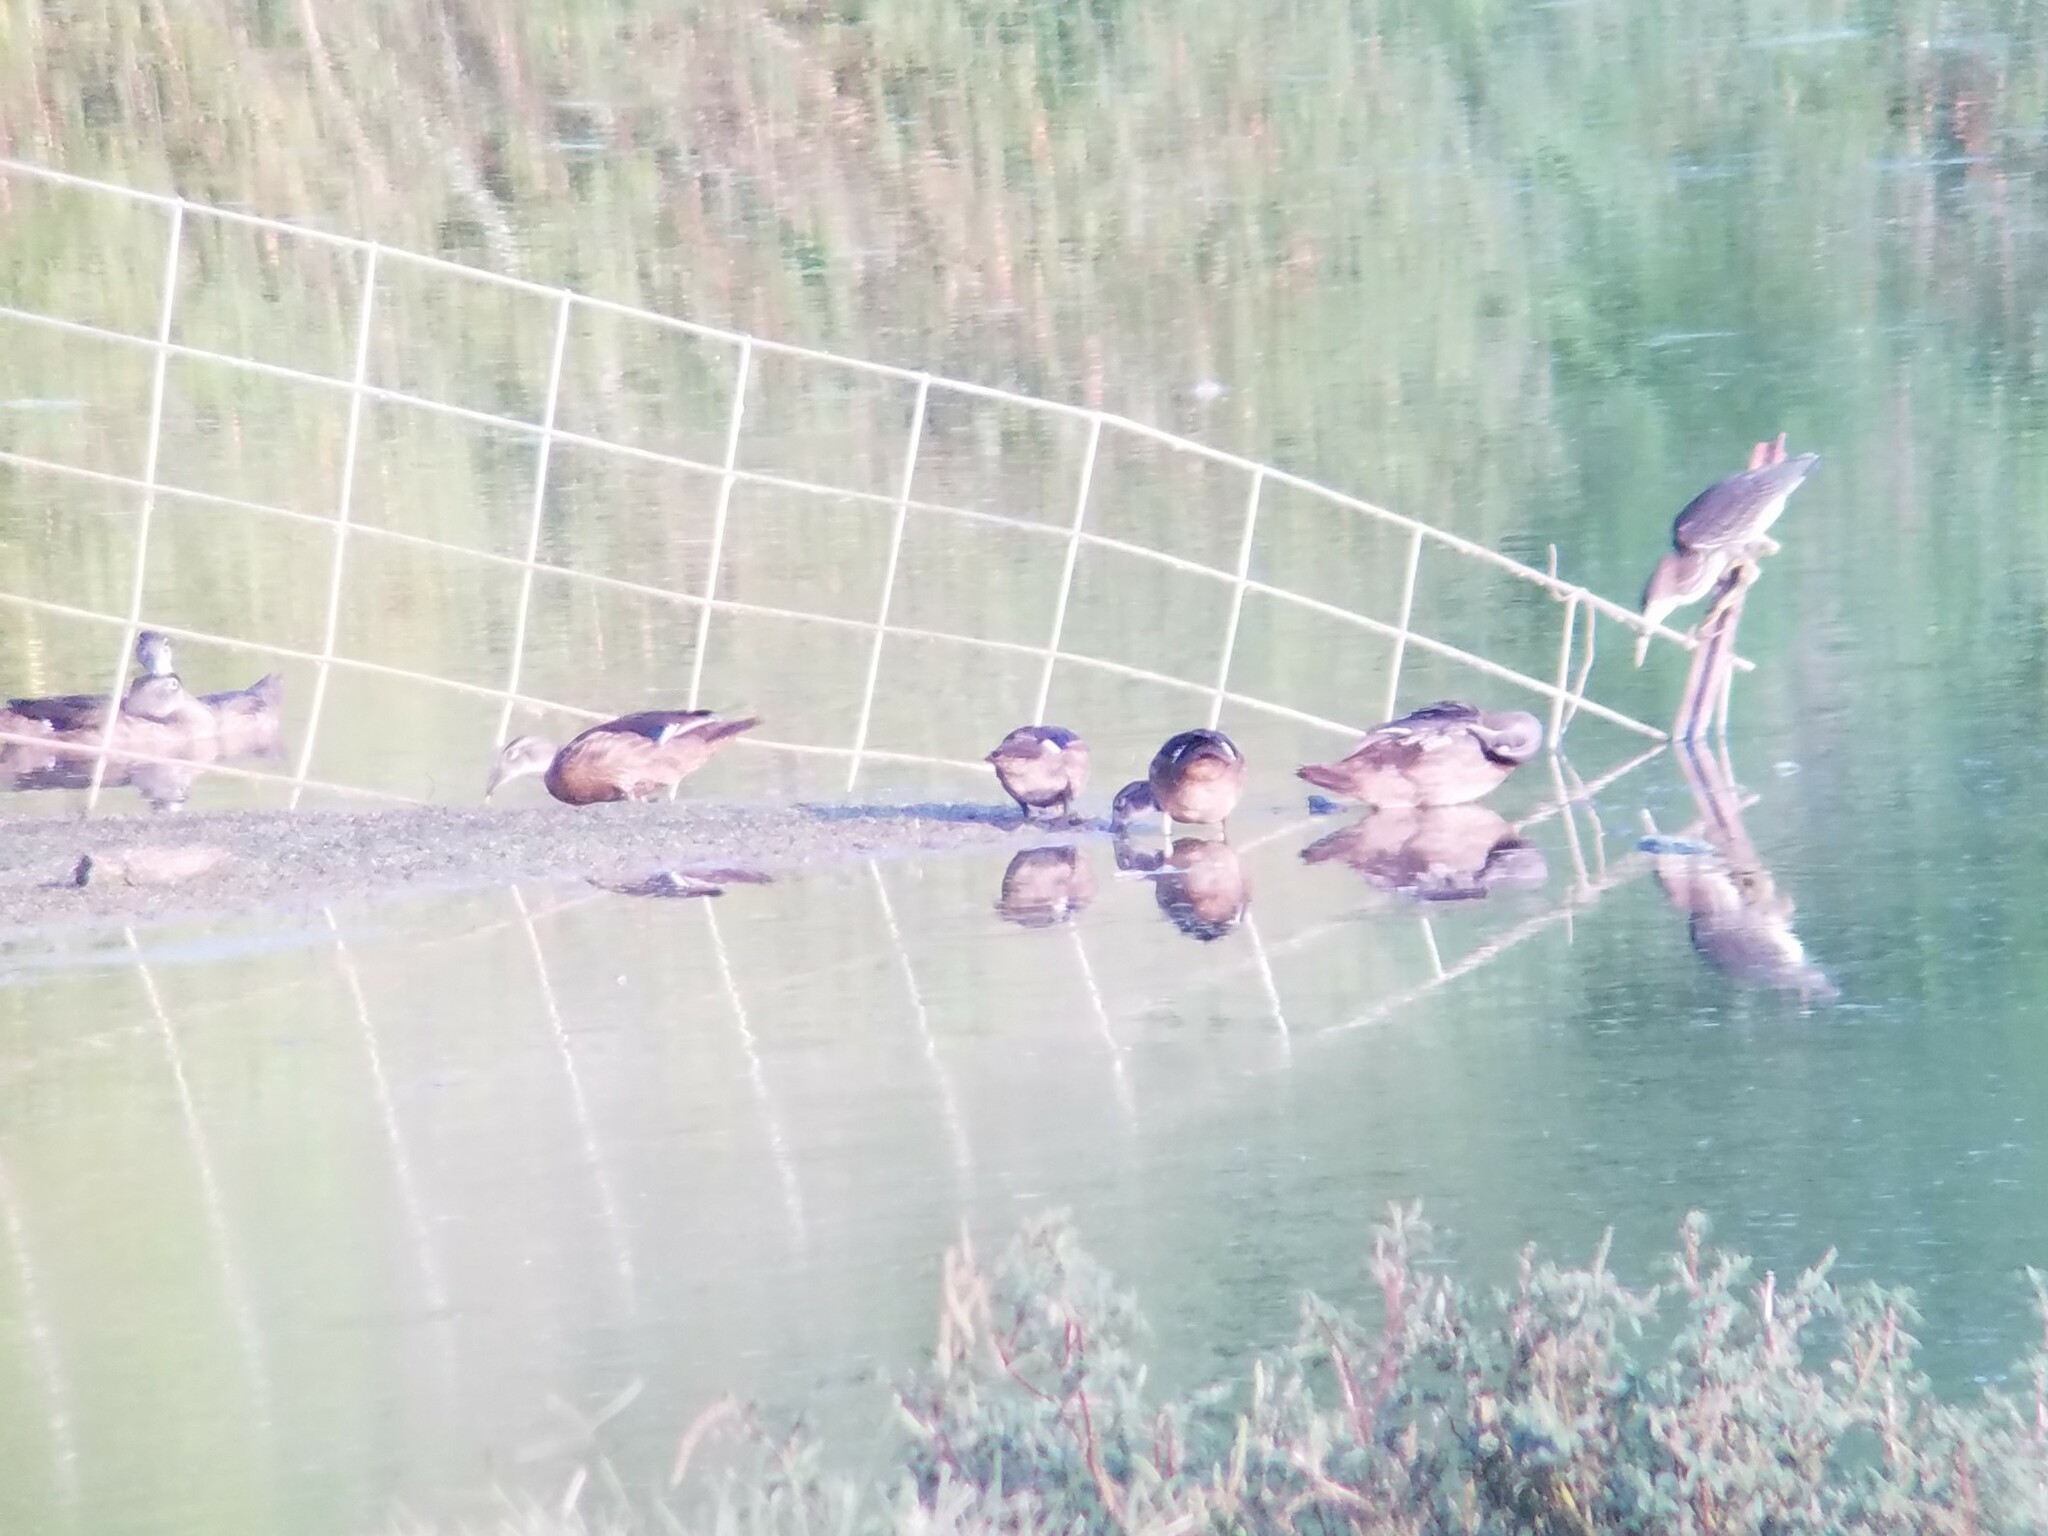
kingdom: Animalia
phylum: Chordata
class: Aves
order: Anseriformes
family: Anatidae
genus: Aix
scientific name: Aix sponsa
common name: Wood duck
